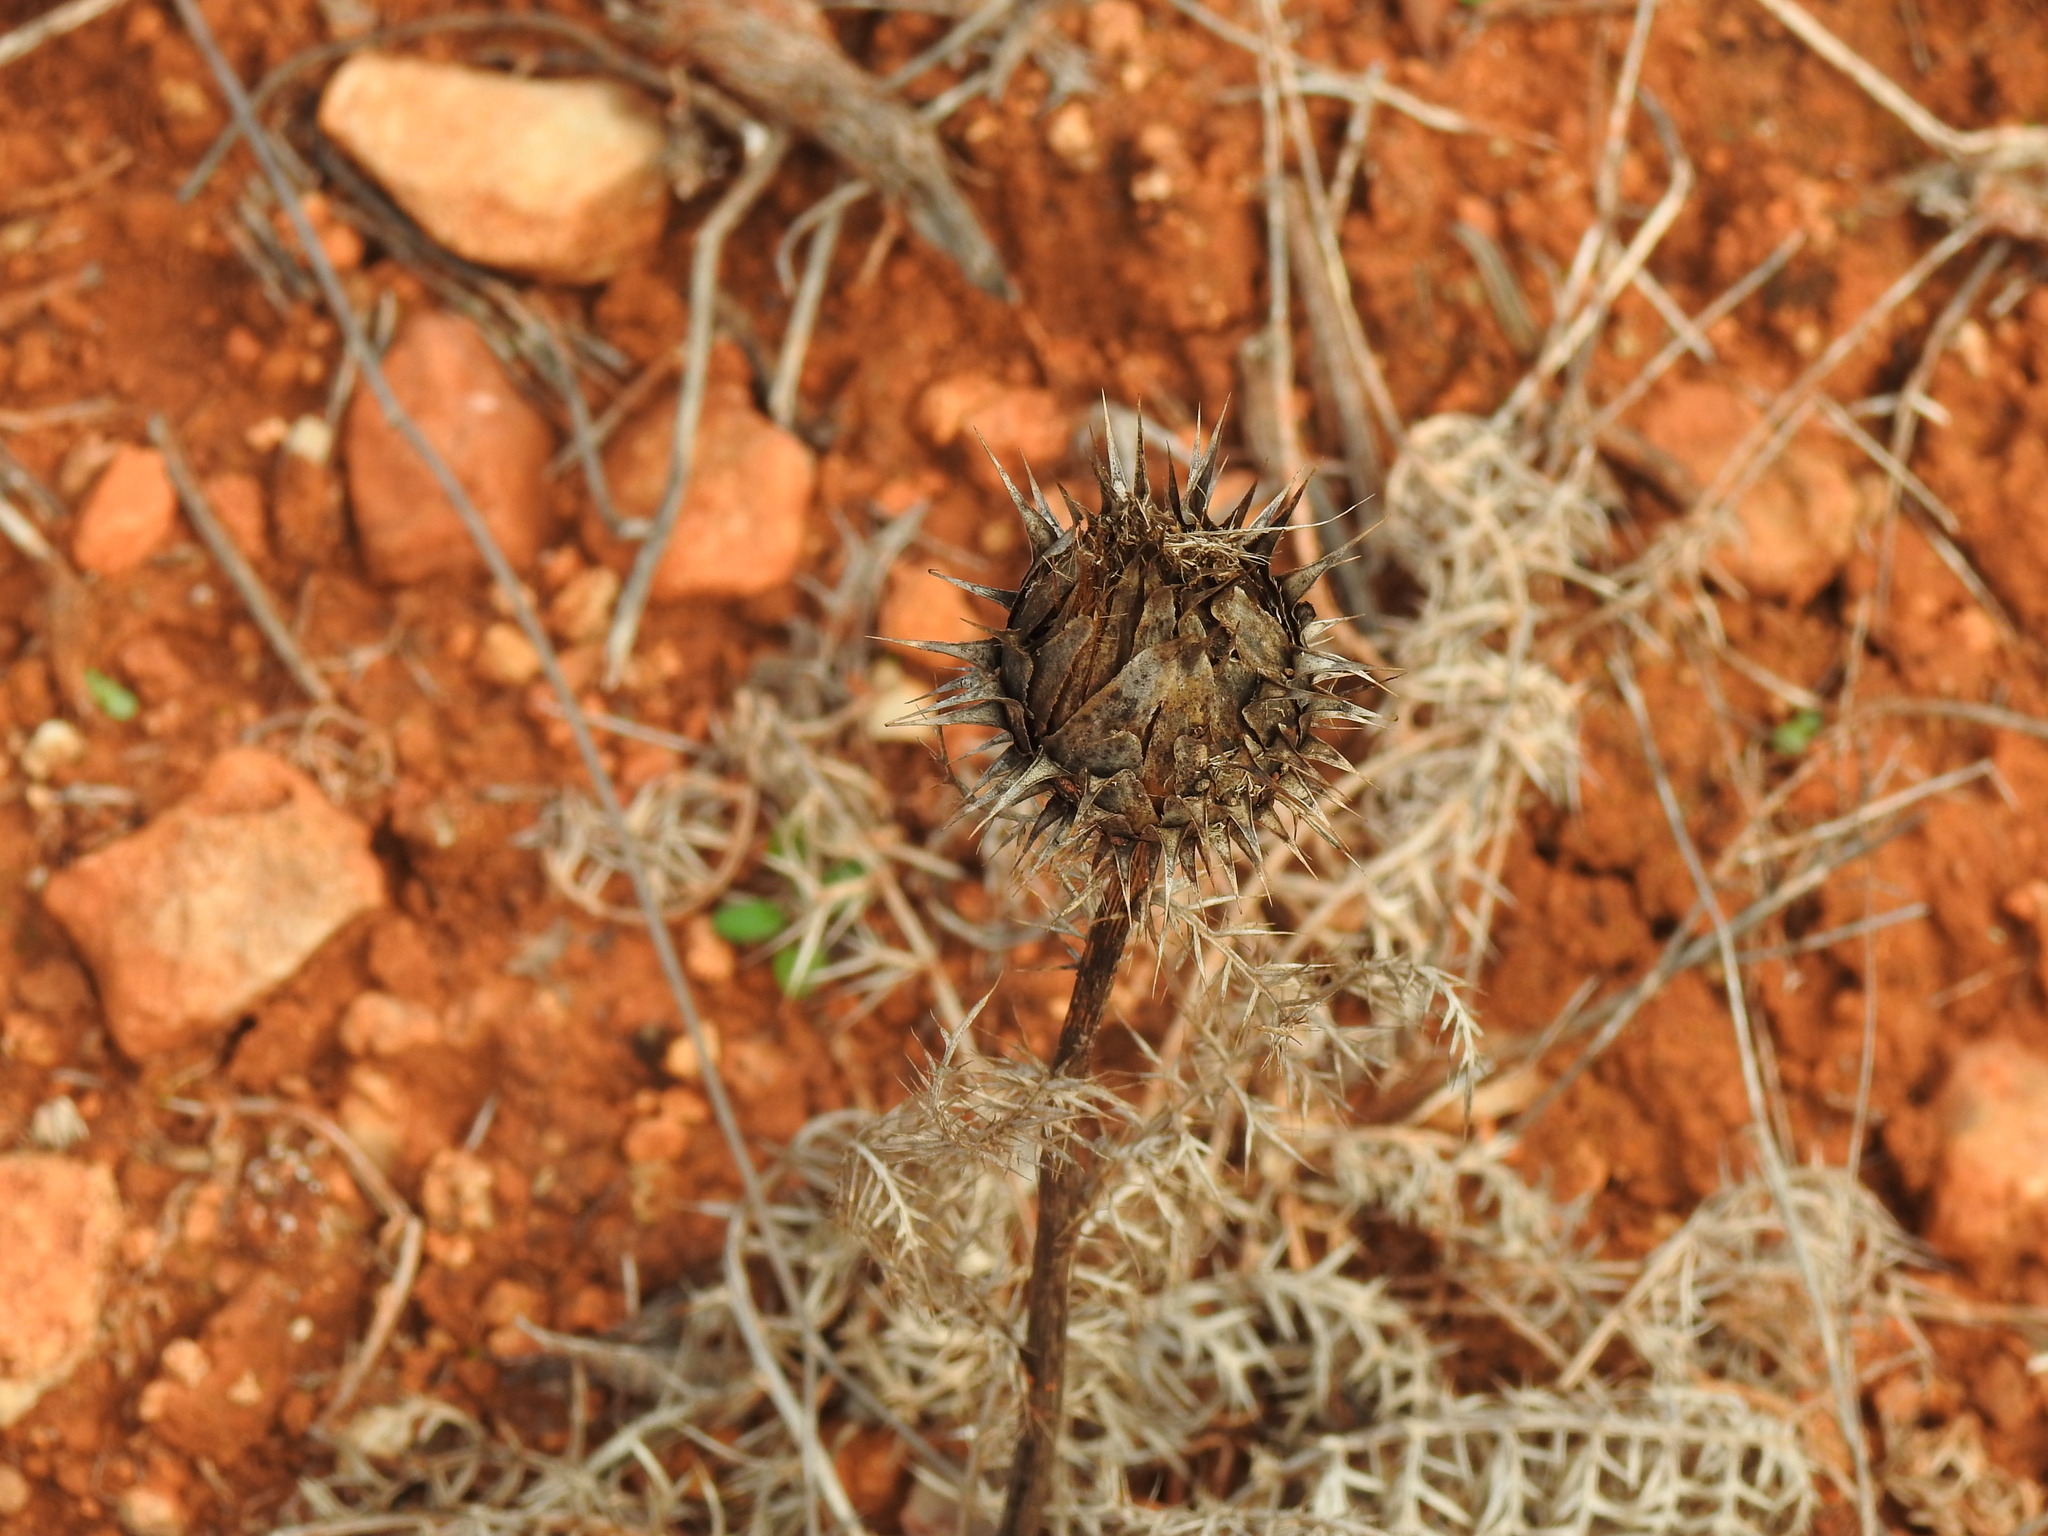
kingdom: Plantae
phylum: Tracheophyta
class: Magnoliopsida
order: Asterales
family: Asteraceae
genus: Cynara
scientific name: Cynara humilis
